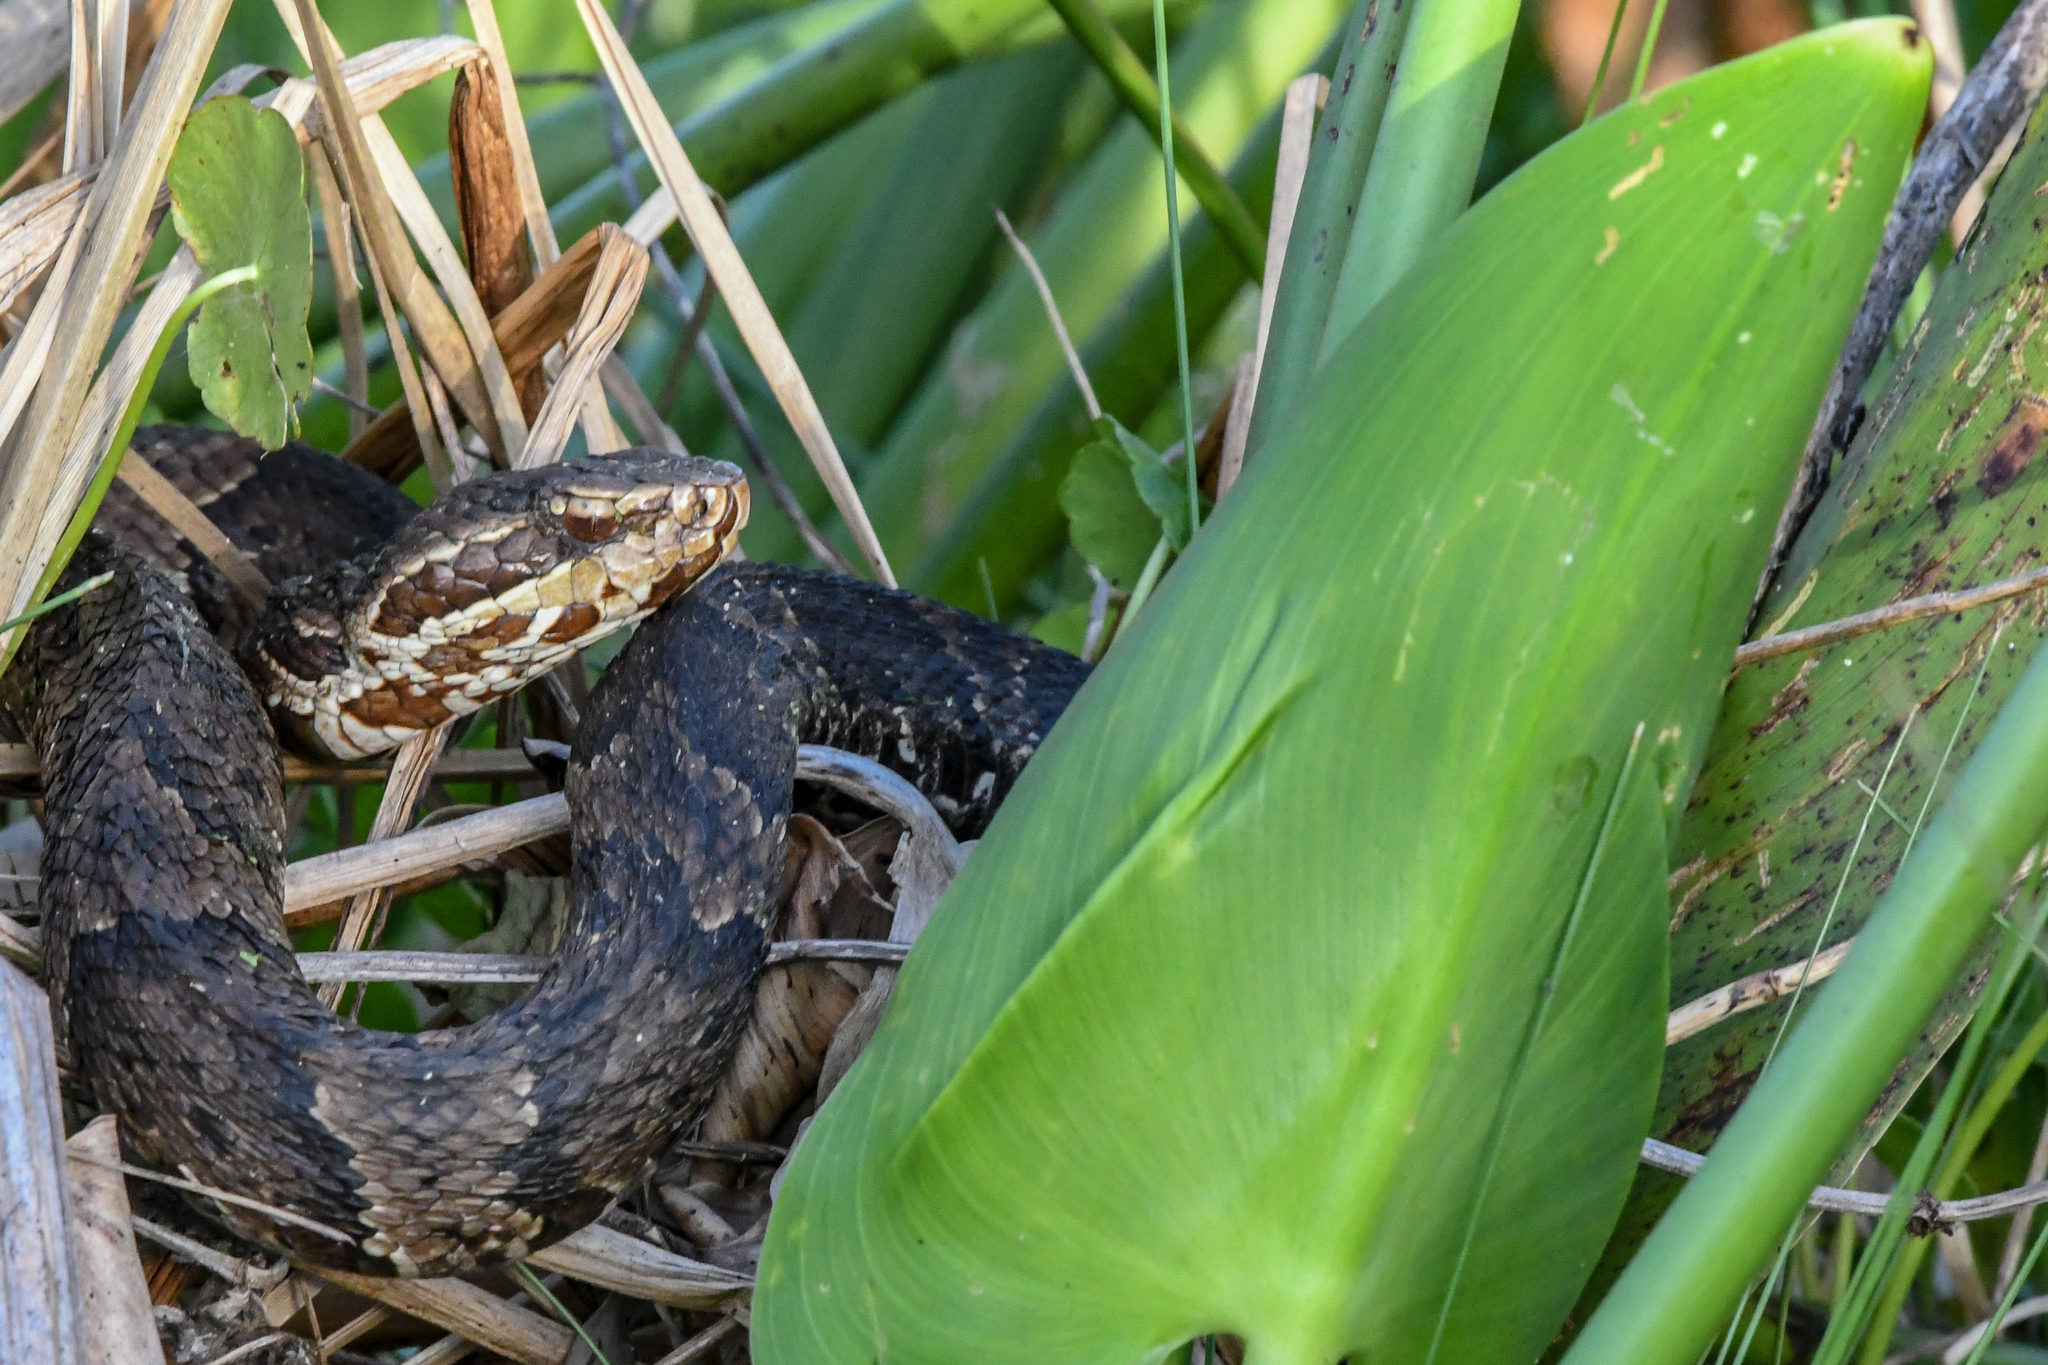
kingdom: Animalia
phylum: Chordata
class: Squamata
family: Viperidae
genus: Agkistrodon
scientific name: Agkistrodon conanti
